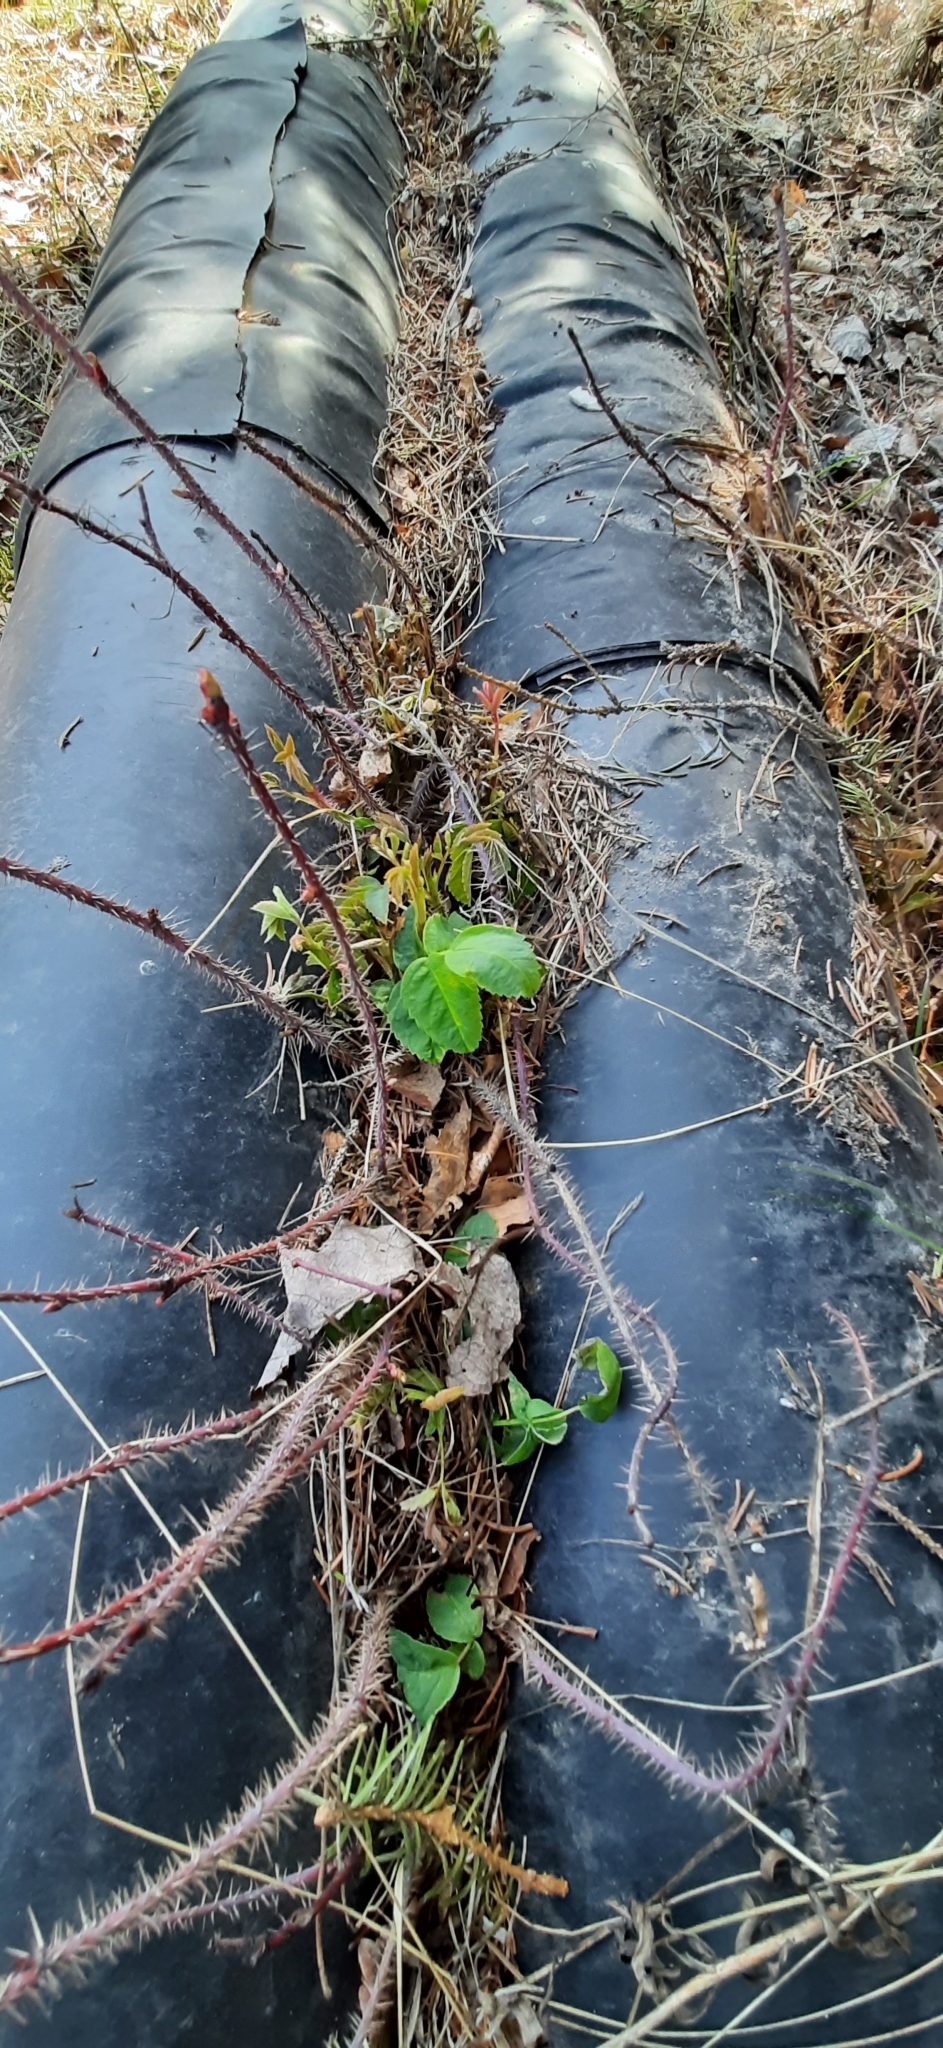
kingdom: Plantae
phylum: Tracheophyta
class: Magnoliopsida
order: Rosales
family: Rosaceae
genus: Rosa
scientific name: Rosa acicularis
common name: Prickly rose
